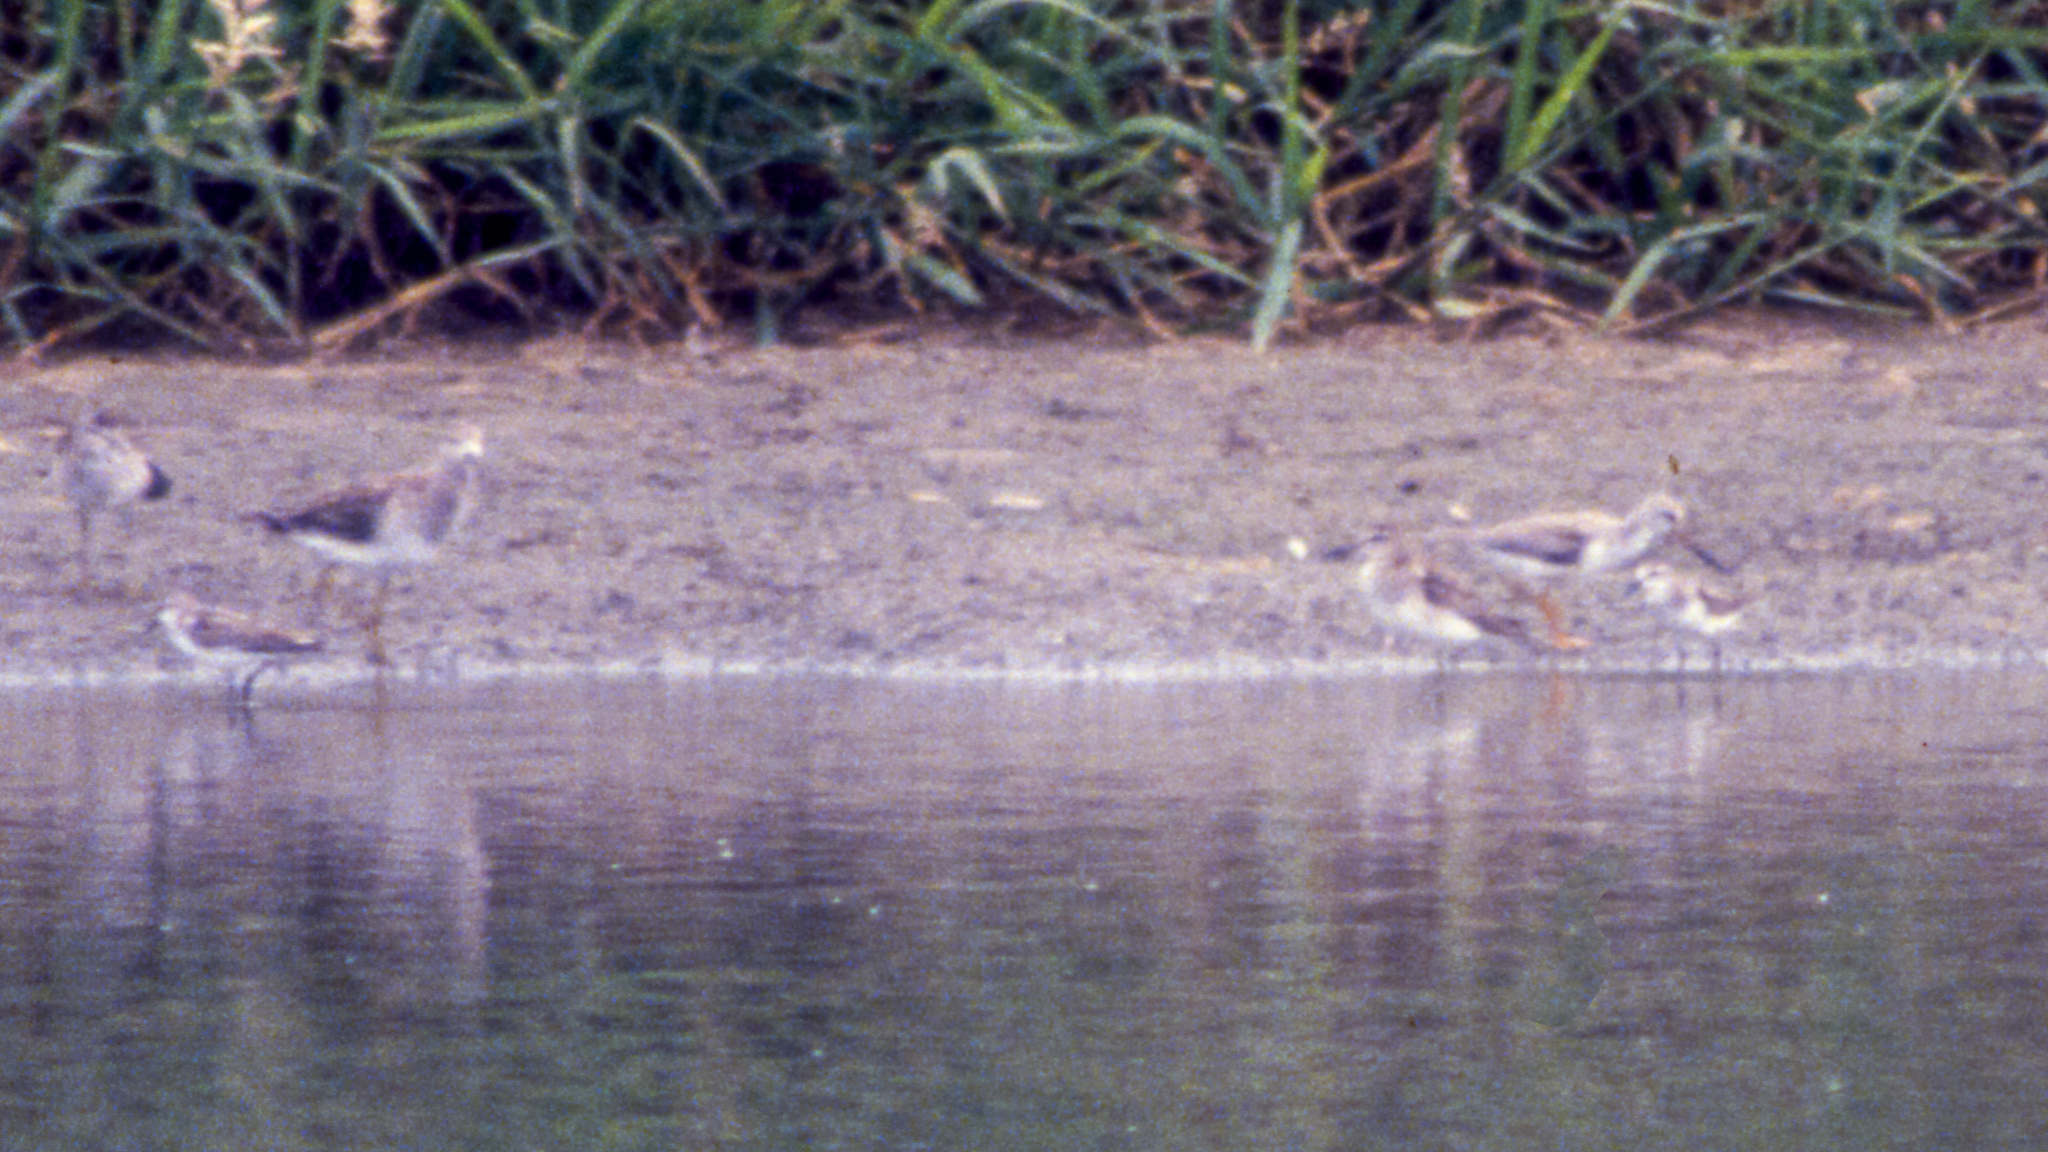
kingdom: Animalia
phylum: Chordata
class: Aves
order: Charadriiformes
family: Scolopacidae
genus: Calidris
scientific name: Calidris minuta
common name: Little stint
